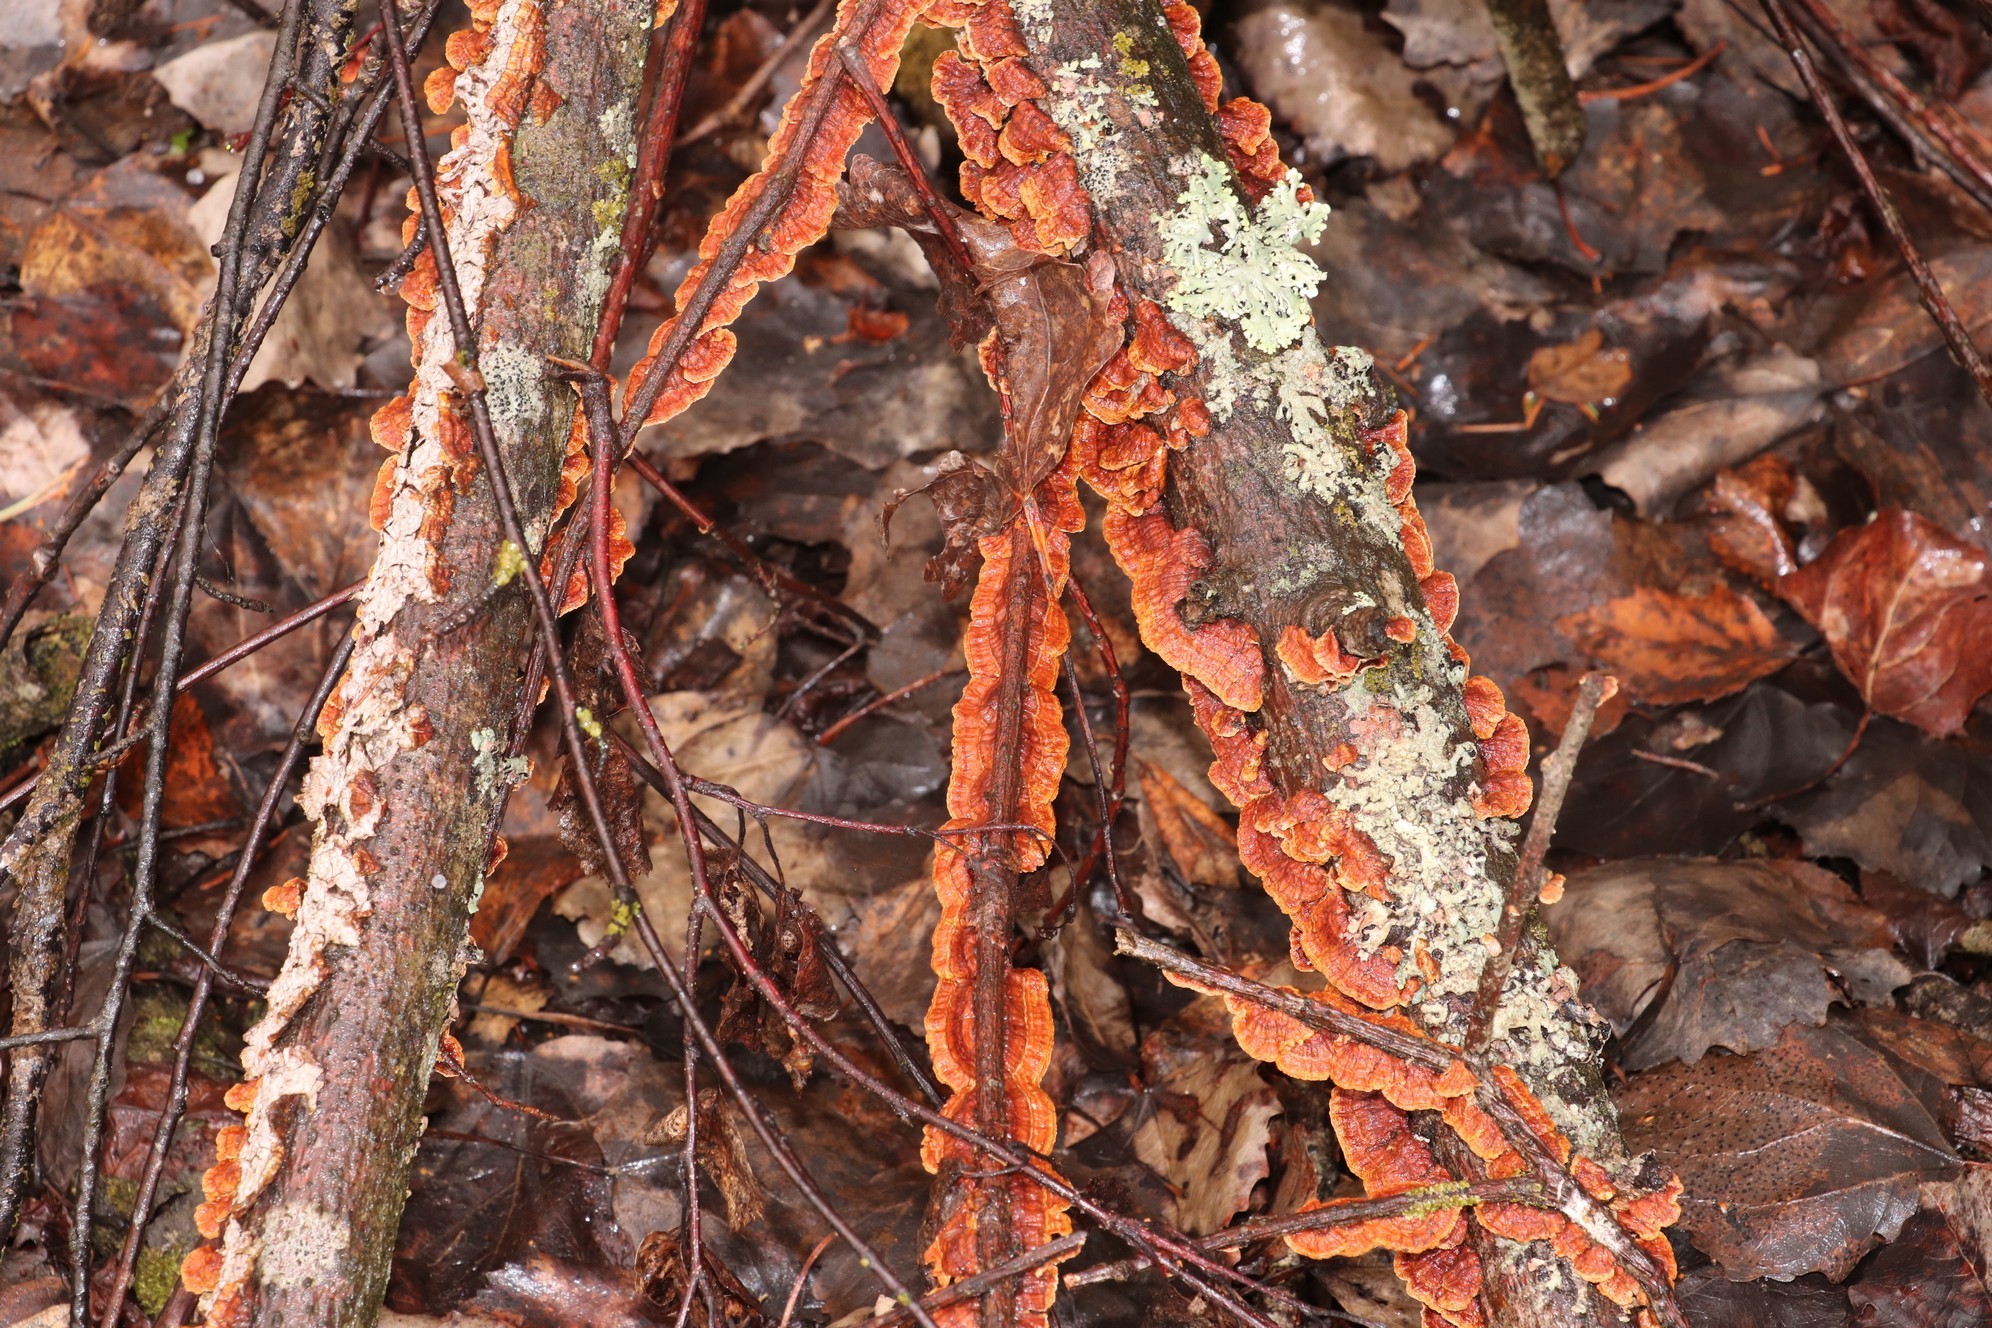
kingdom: Fungi
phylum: Basidiomycota
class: Agaricomycetes
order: Hymenochaetales
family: Hymenochaetaceae
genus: Hydnoporia
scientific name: Hydnoporia tabacina
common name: Willow glue
